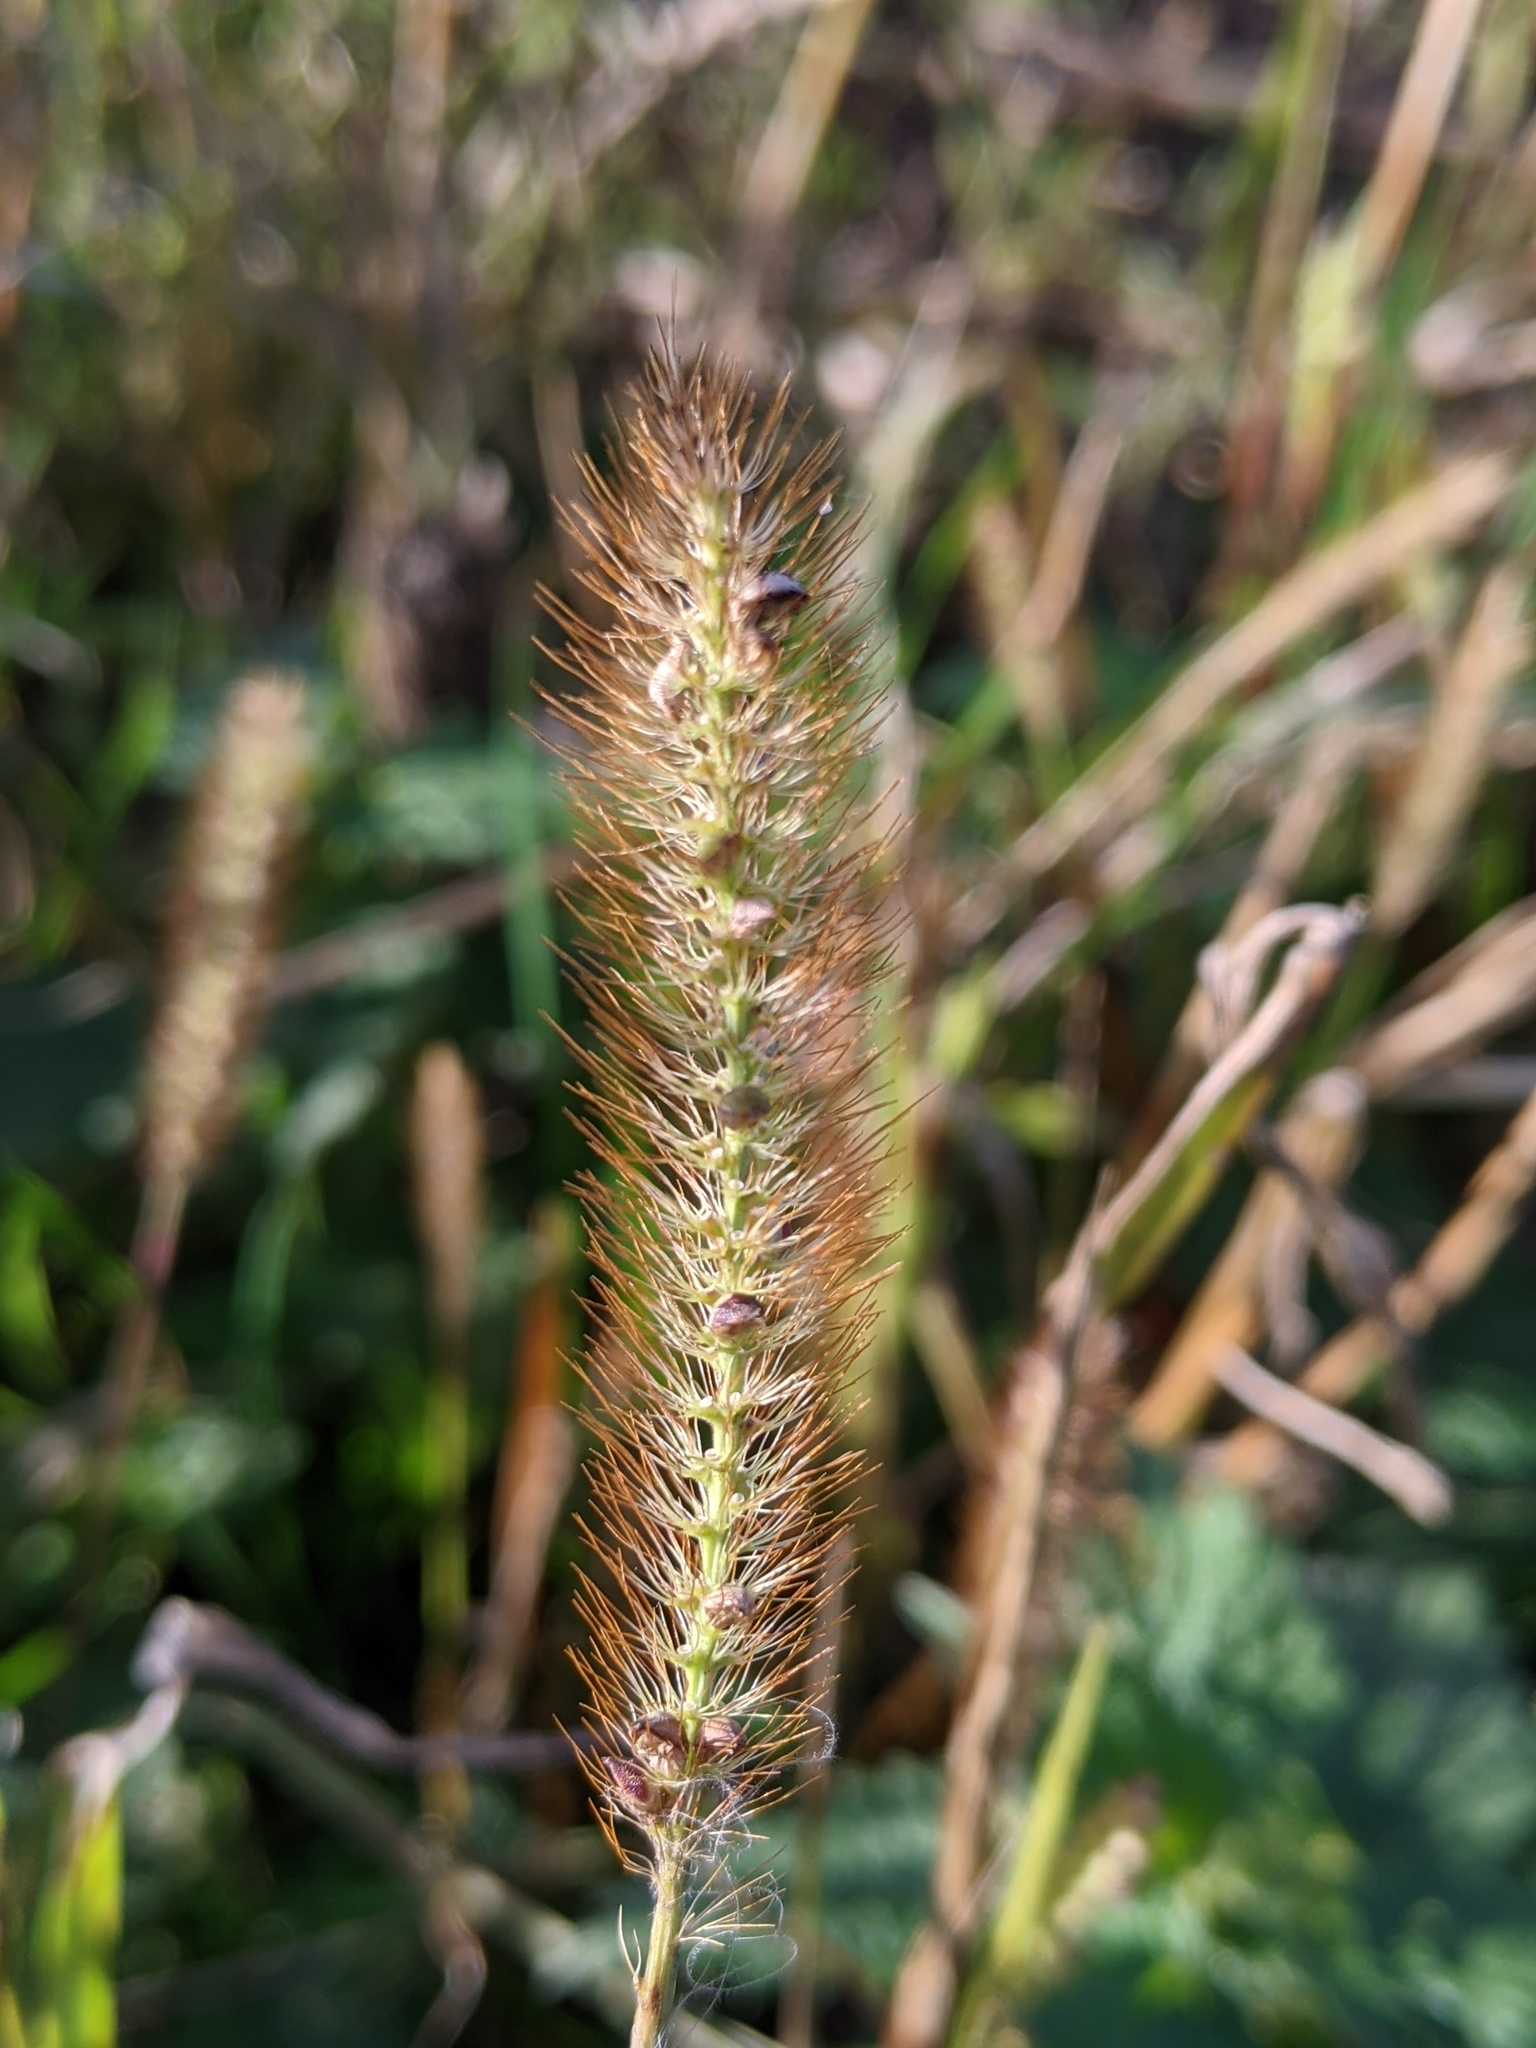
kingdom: Plantae
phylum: Tracheophyta
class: Liliopsida
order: Poales
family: Poaceae
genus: Setaria
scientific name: Setaria pumila
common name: Yellow bristle-grass
